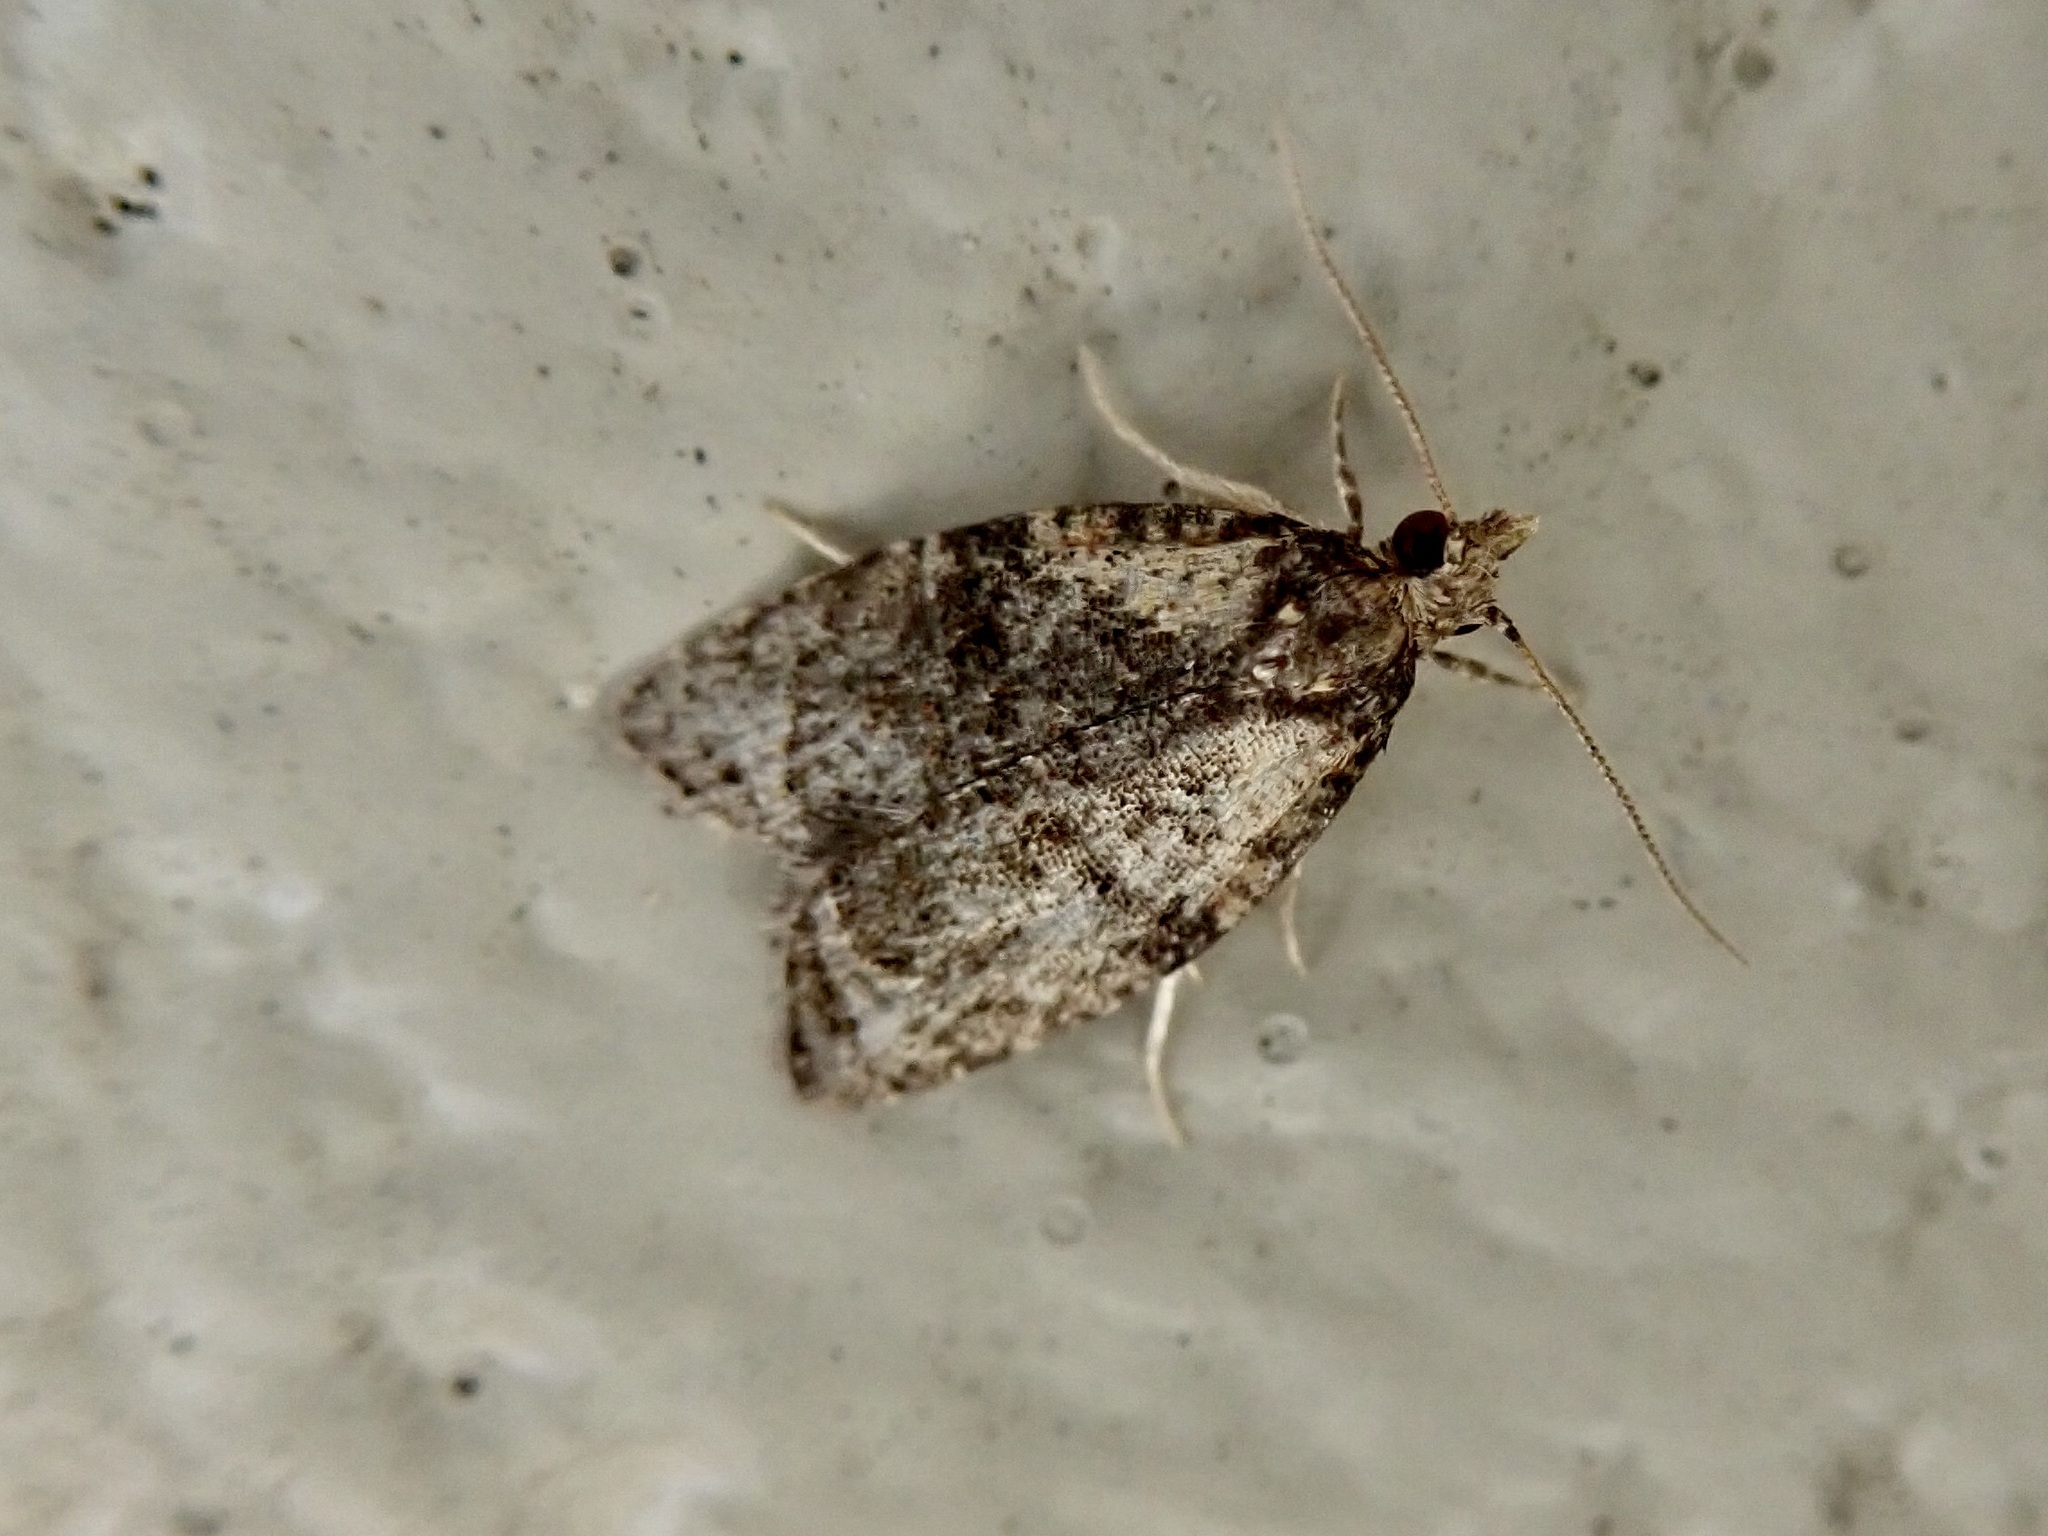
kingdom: Animalia
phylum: Arthropoda
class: Insecta
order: Lepidoptera
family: Tortricidae
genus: Capua
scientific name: Capua intractana
